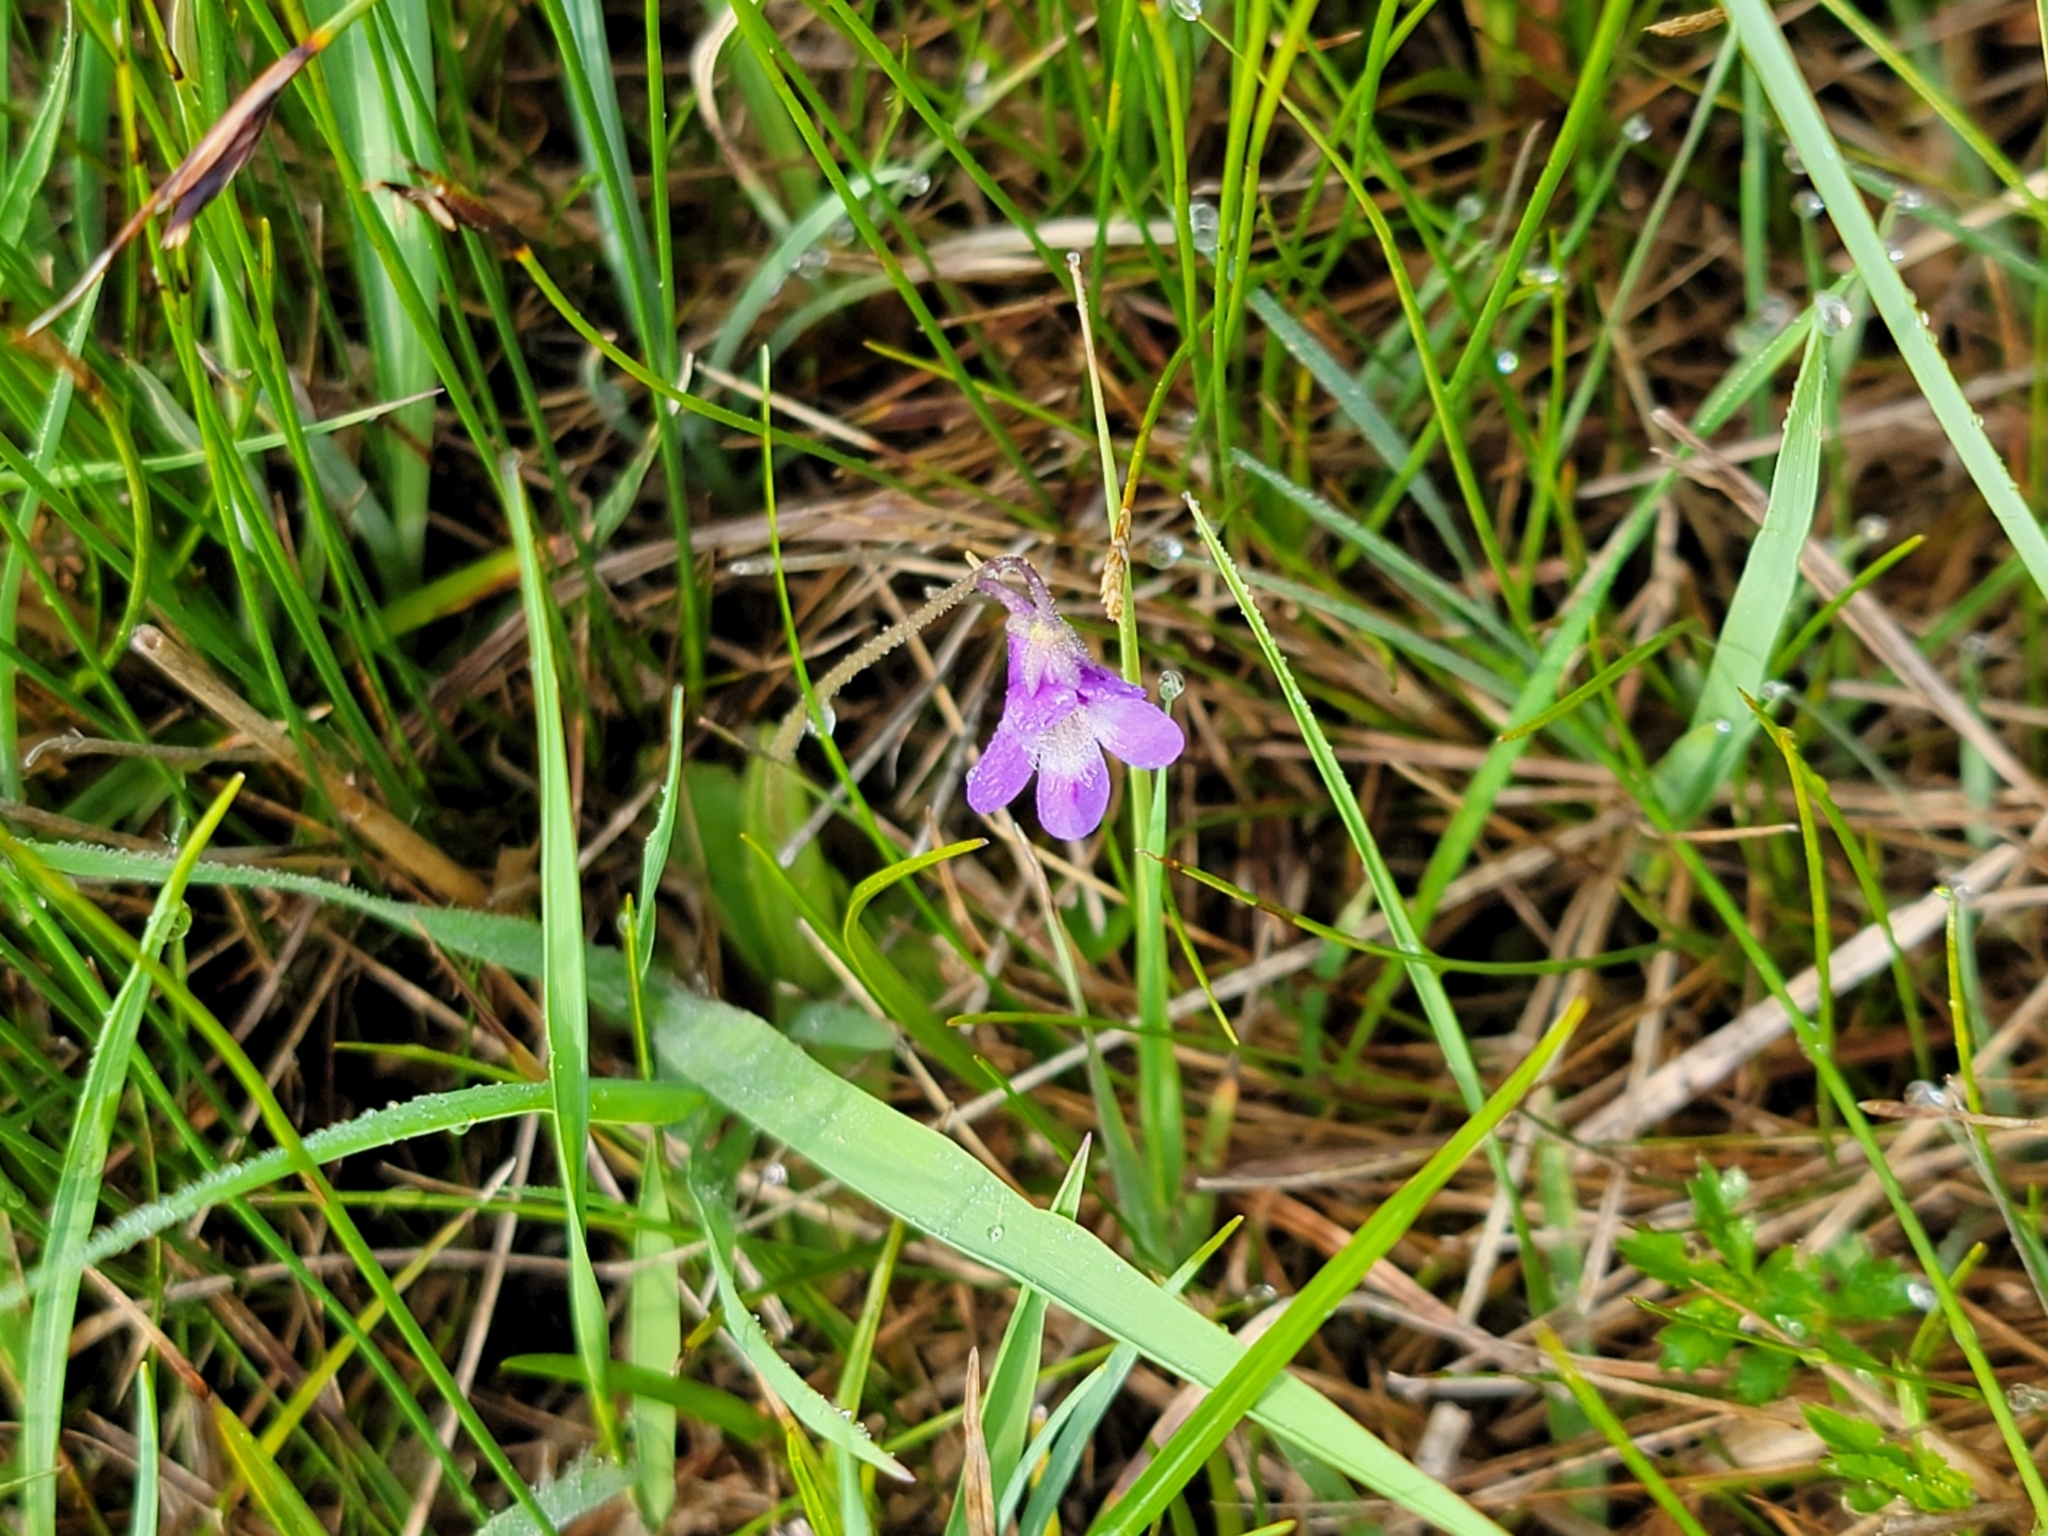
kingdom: Plantae
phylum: Tracheophyta
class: Magnoliopsida
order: Lamiales
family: Lentibulariaceae
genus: Pinguicula
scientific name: Pinguicula vulgaris
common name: Common butterwort
